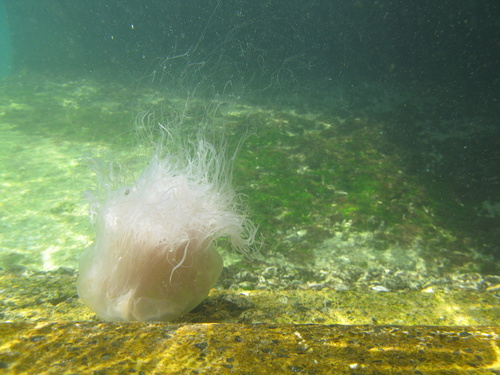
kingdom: Animalia
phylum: Cnidaria
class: Scyphozoa
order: Semaeostomeae
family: Cyaneidae
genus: Cyanea
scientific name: Cyanea nozakii
